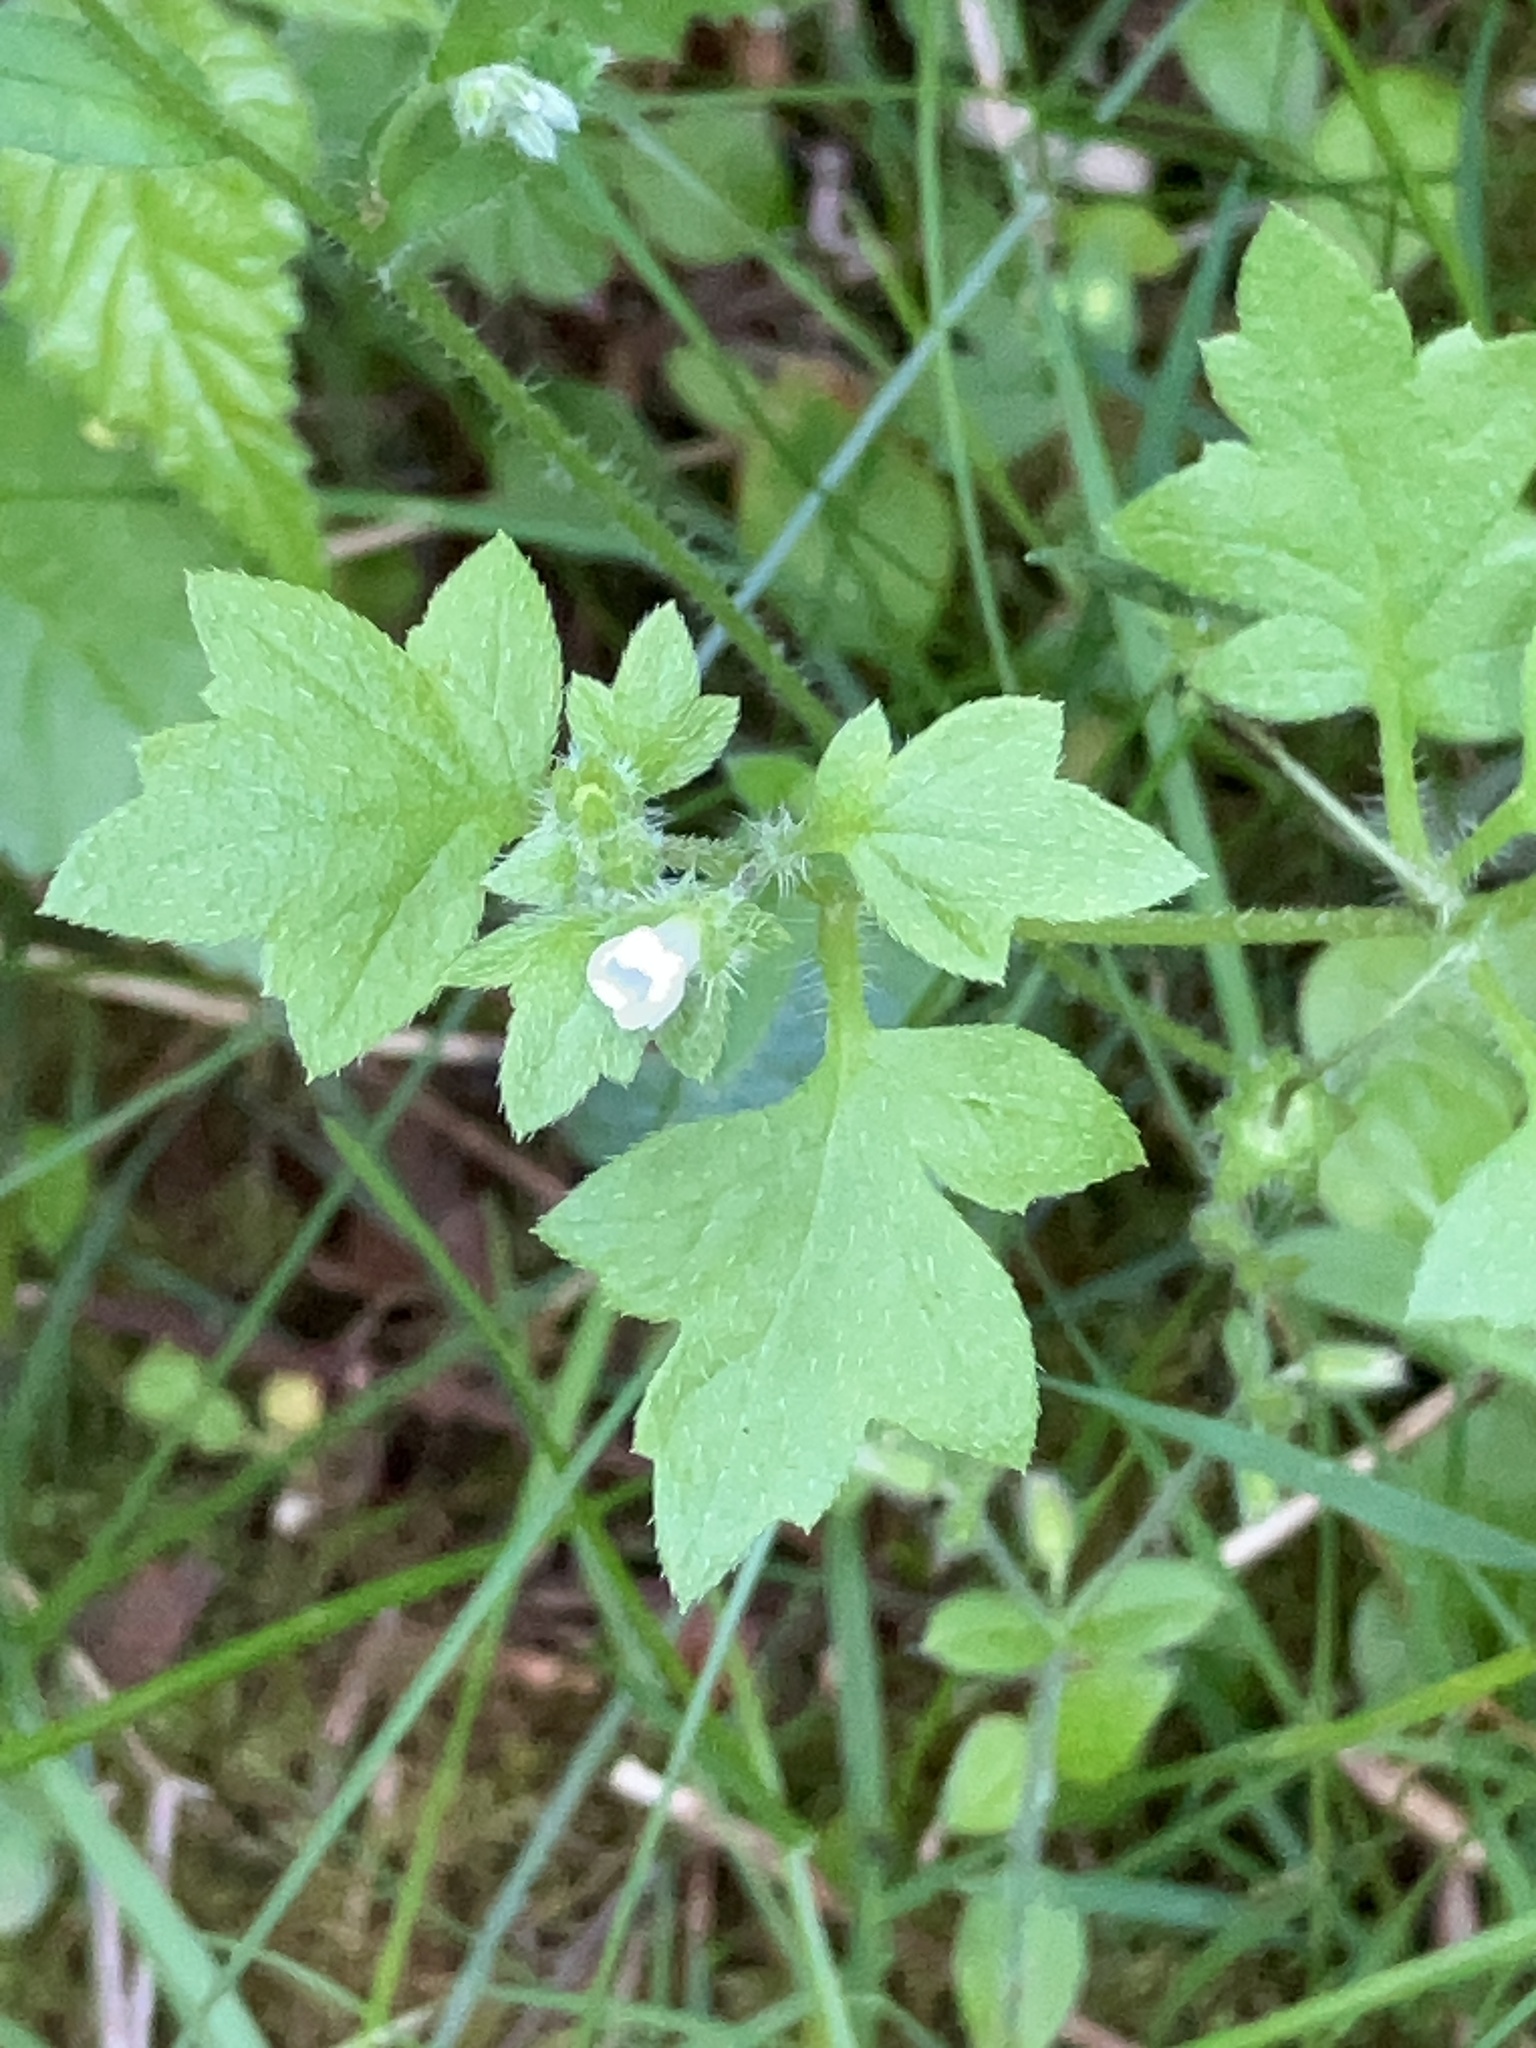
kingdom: Plantae
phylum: Tracheophyta
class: Magnoliopsida
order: Boraginales
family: Hydrophyllaceae
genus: Nemophila
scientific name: Nemophila parviflora
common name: Small-flowered baby-blue-eyes
